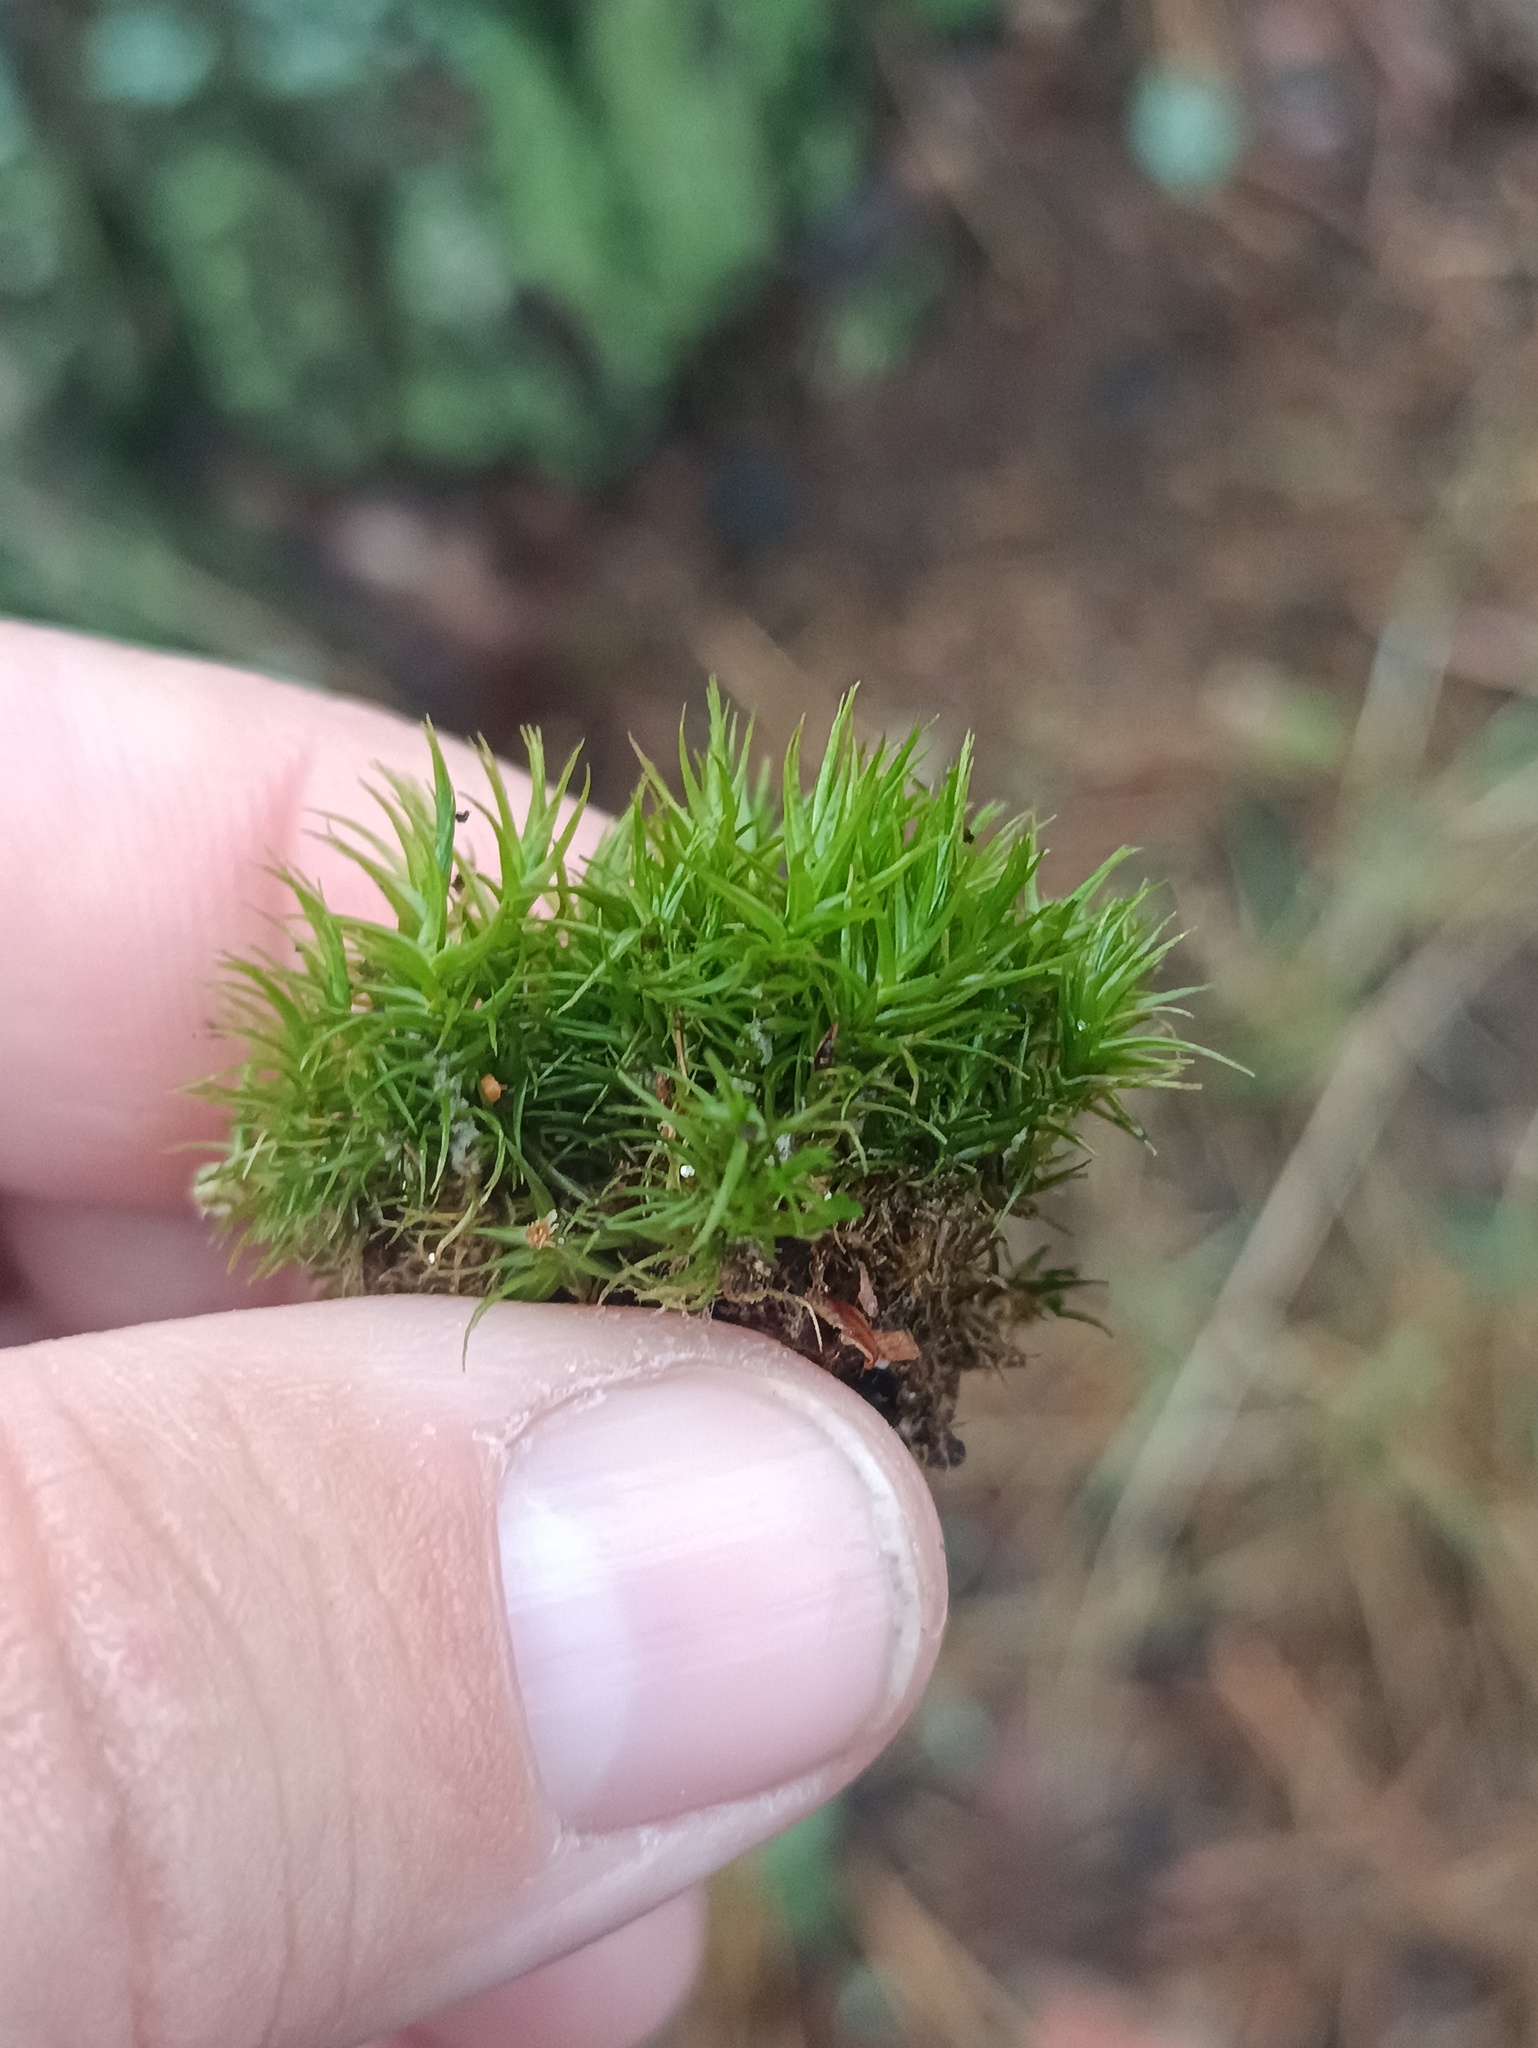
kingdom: Plantae
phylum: Bryophyta
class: Bryopsida
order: Dicranales
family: Dicranaceae
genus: Dicranum
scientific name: Dicranum scoparium
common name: Broom fork-moss
